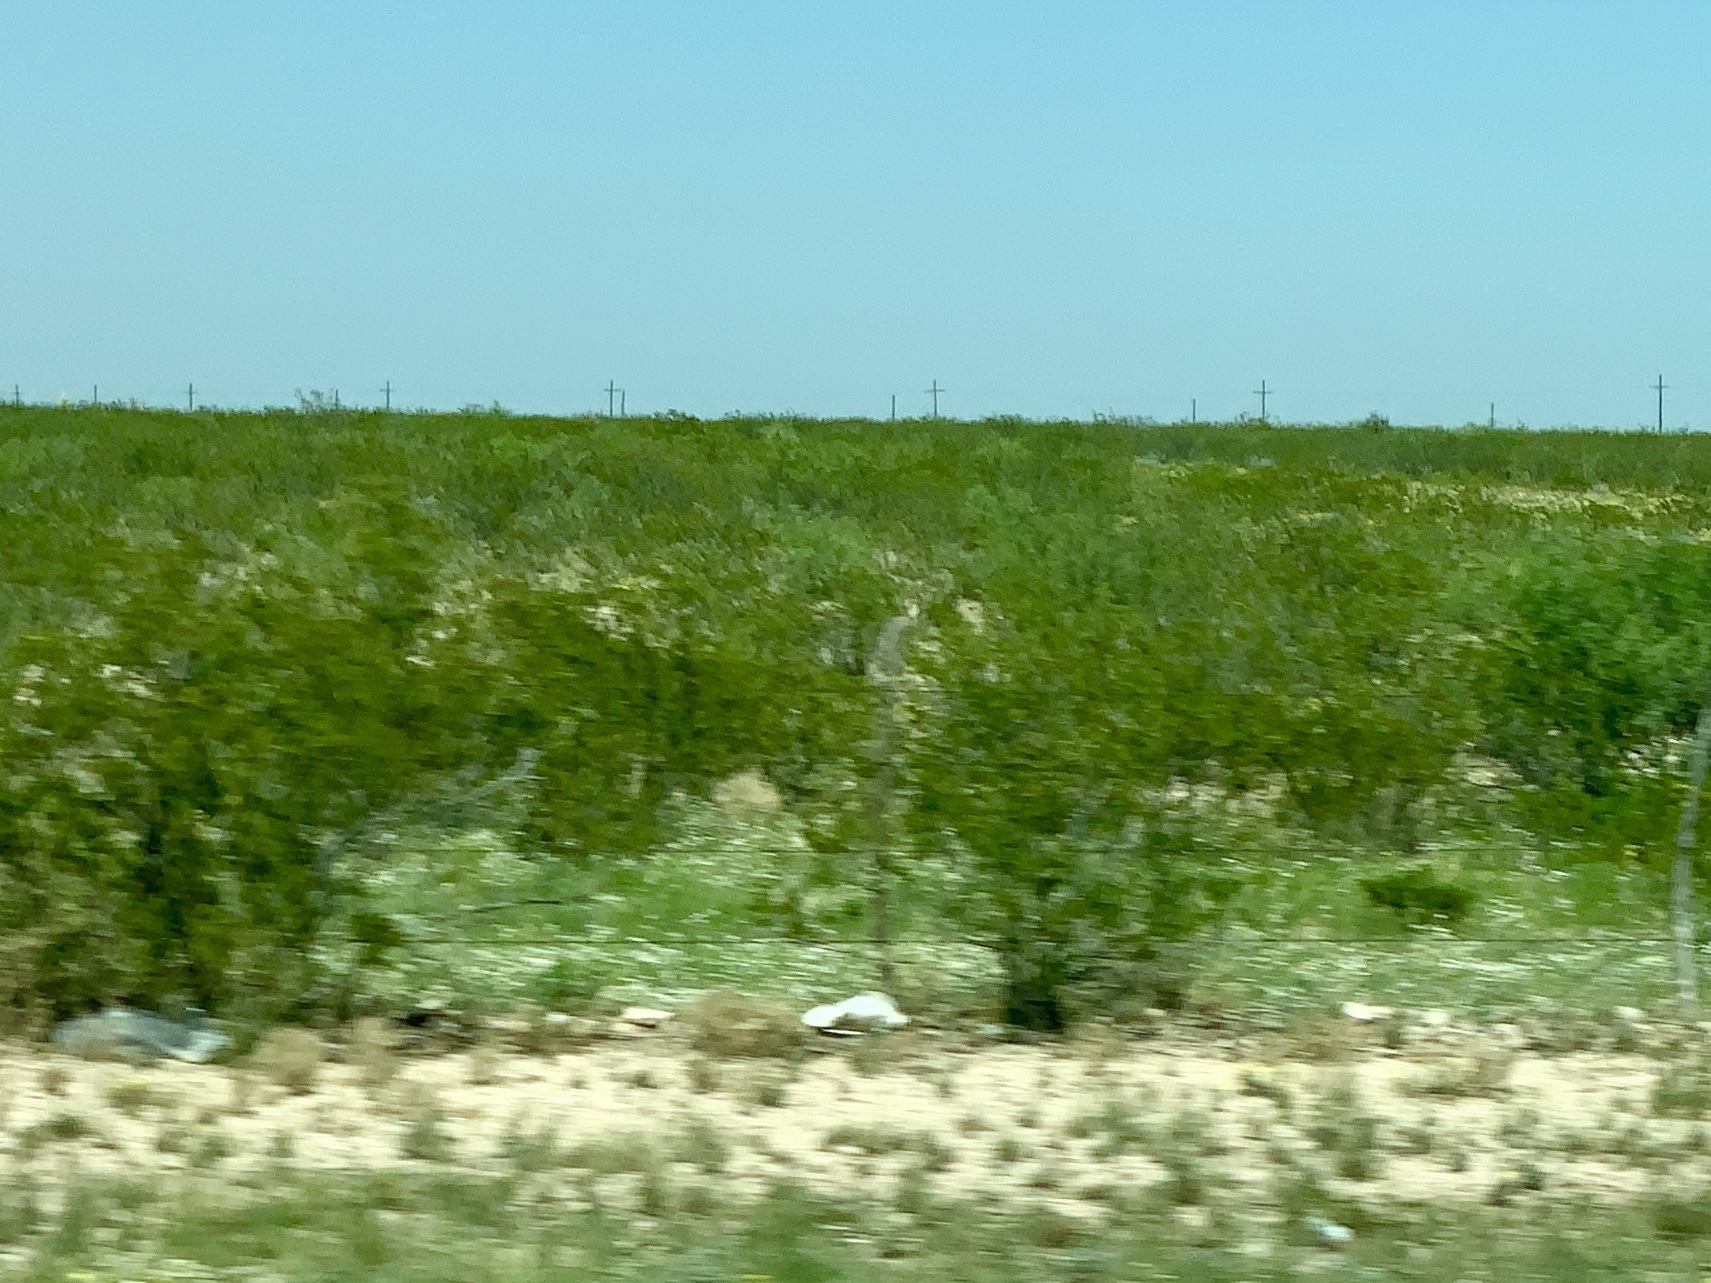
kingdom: Plantae
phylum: Tracheophyta
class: Magnoliopsida
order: Zygophyllales
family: Zygophyllaceae
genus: Larrea
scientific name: Larrea tridentata
